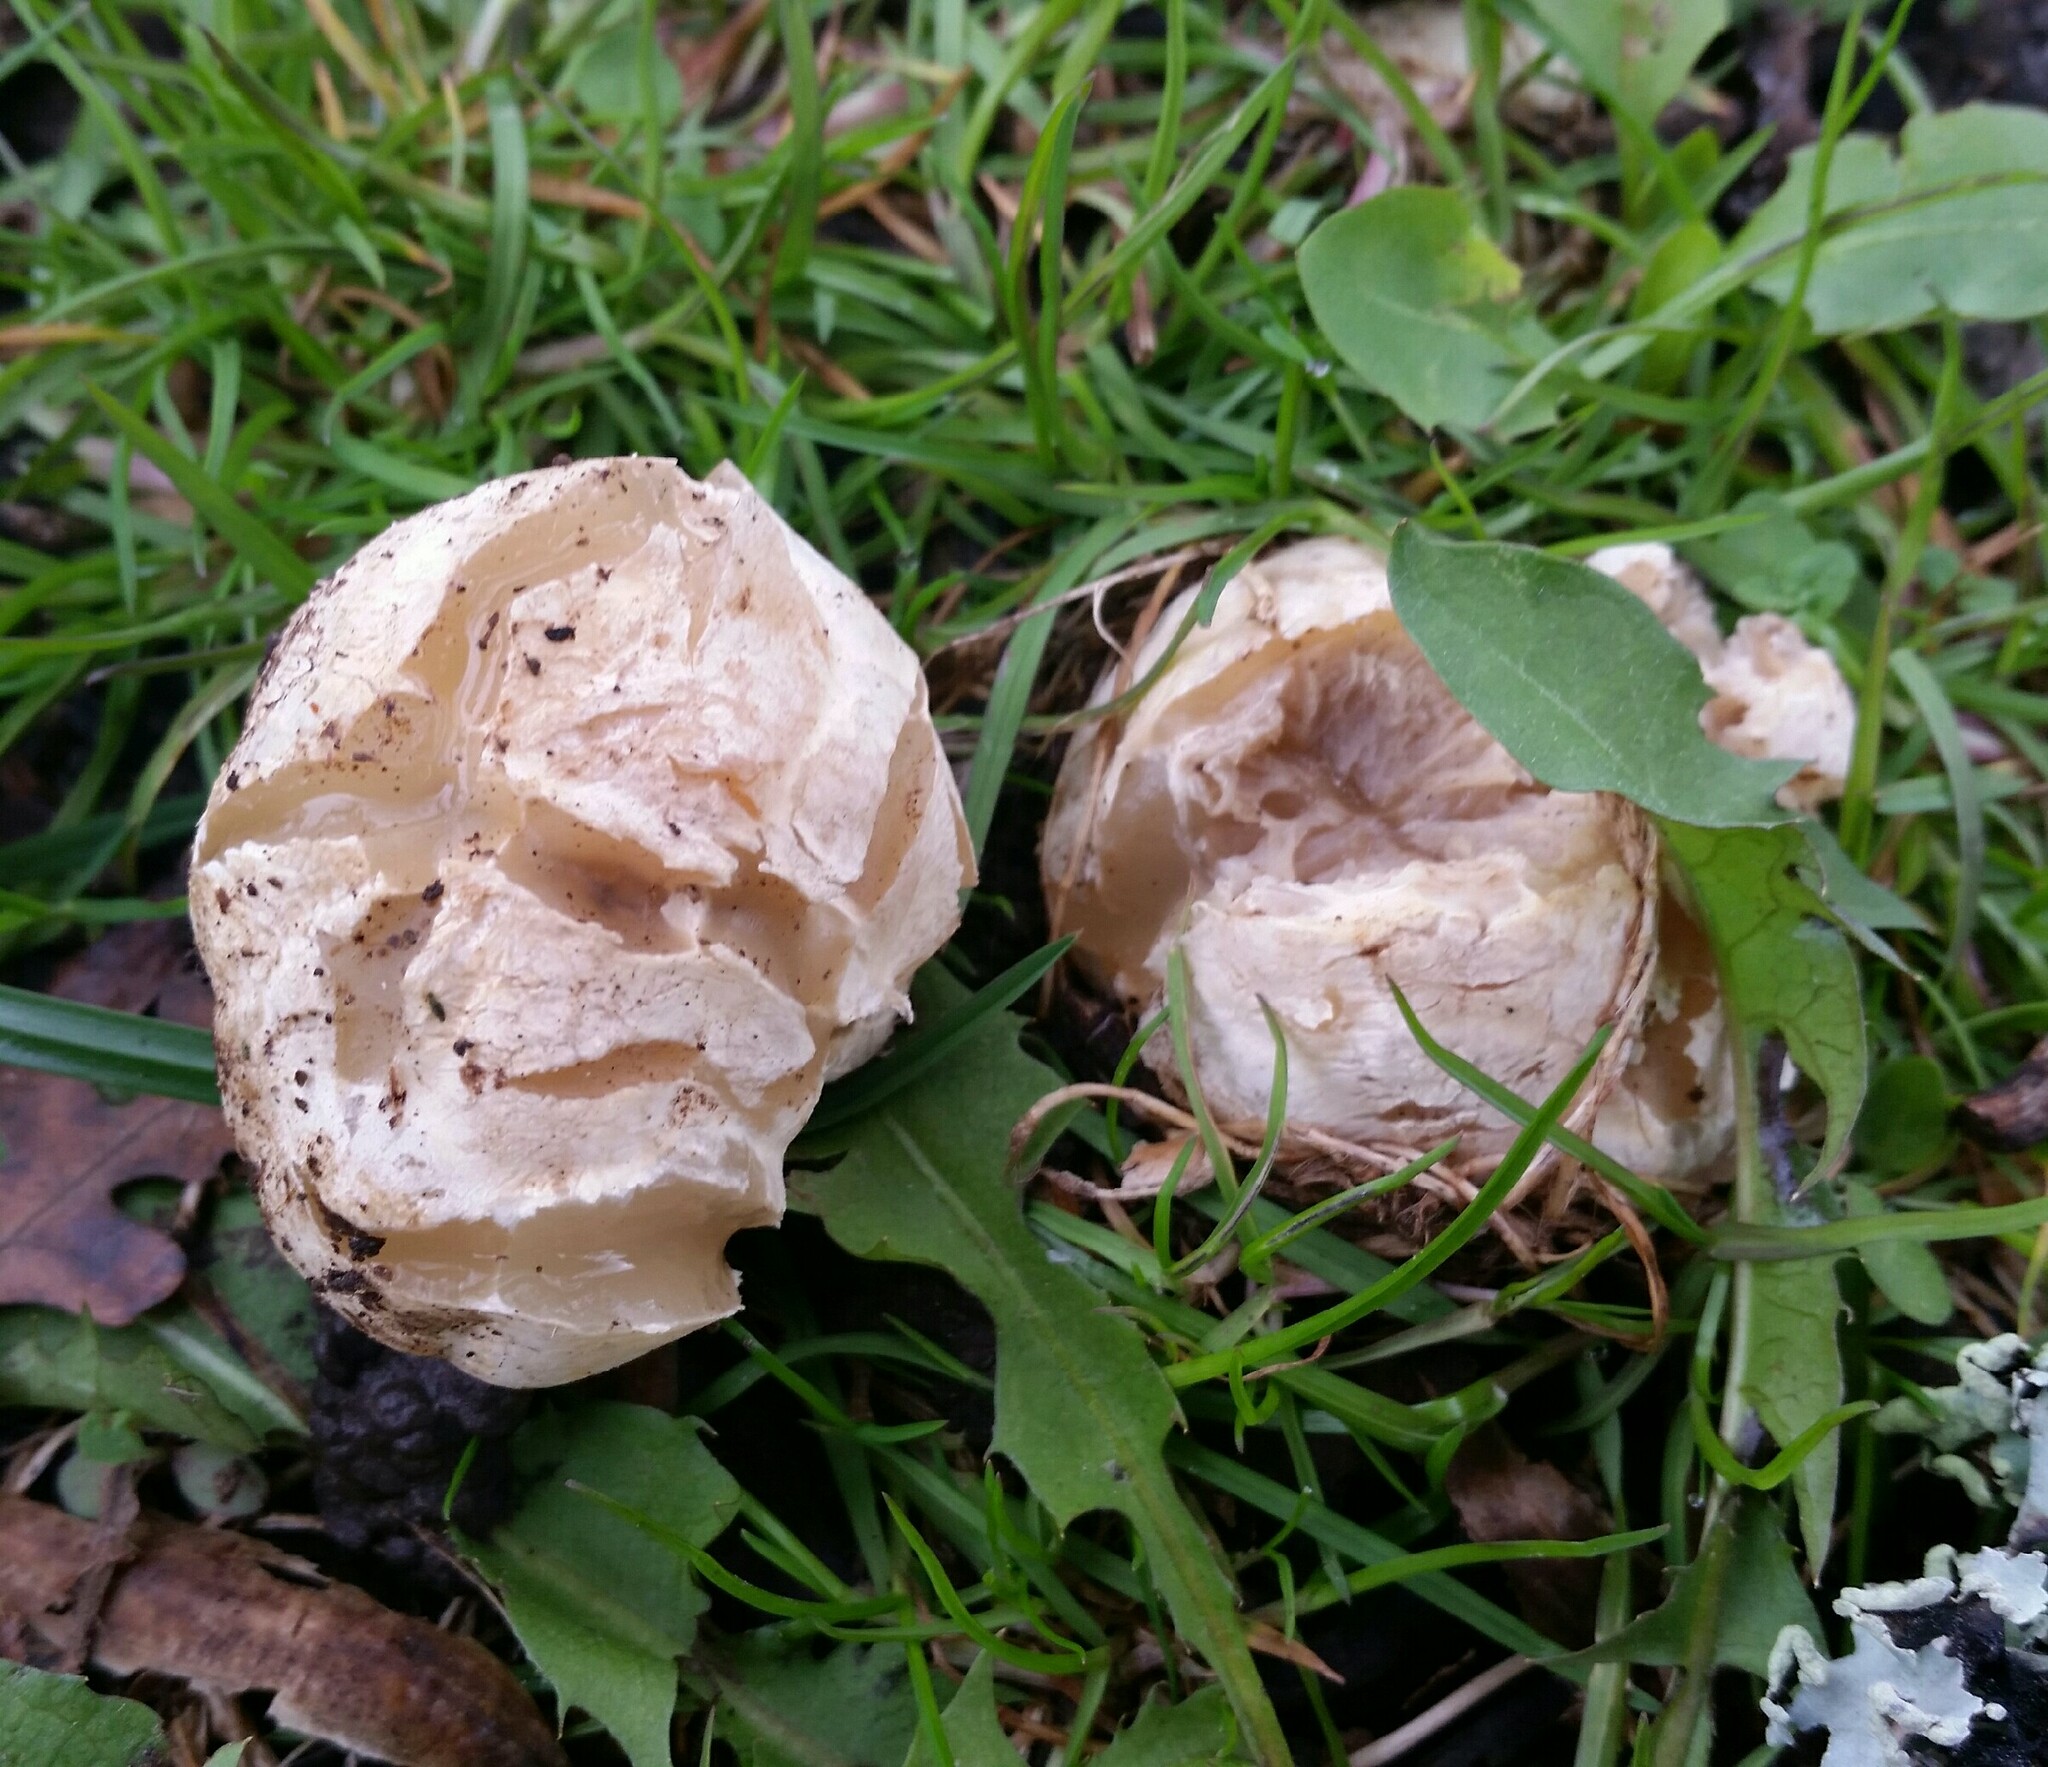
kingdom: Fungi
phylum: Basidiomycota
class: Agaricomycetes
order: Phallales
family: Phallaceae
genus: Clathrus
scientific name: Clathrus ruber
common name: Red cage
